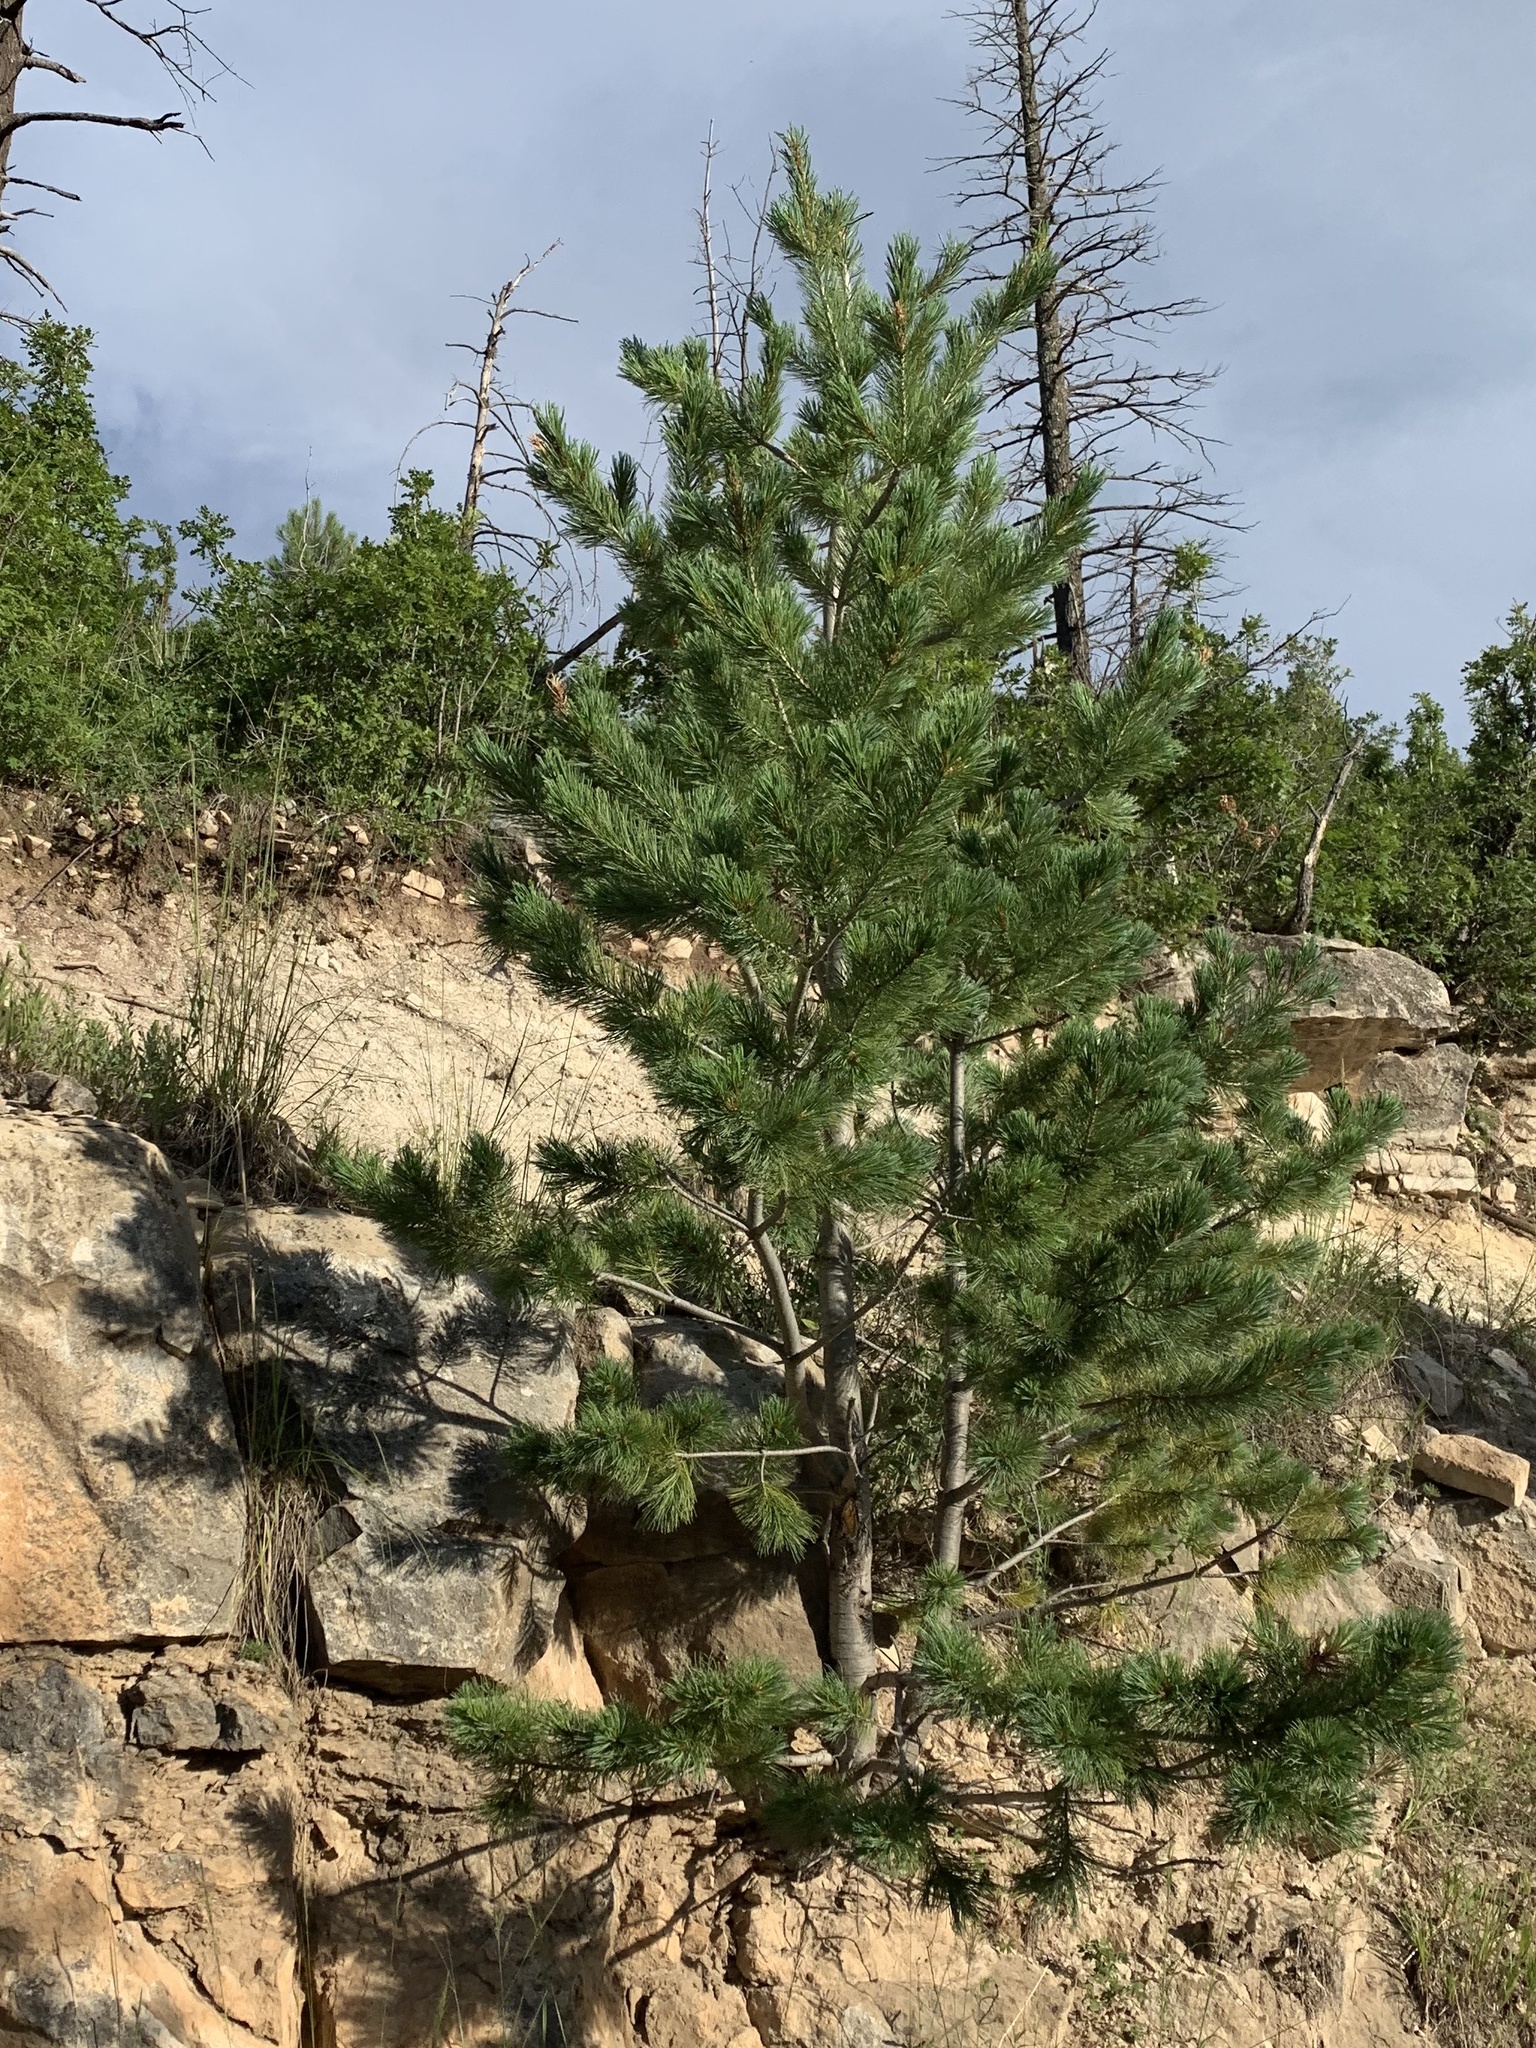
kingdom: Plantae
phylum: Tracheophyta
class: Pinopsida
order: Pinales
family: Pinaceae
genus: Pinus
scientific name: Pinus strobiformis
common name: Southwestern white pine
